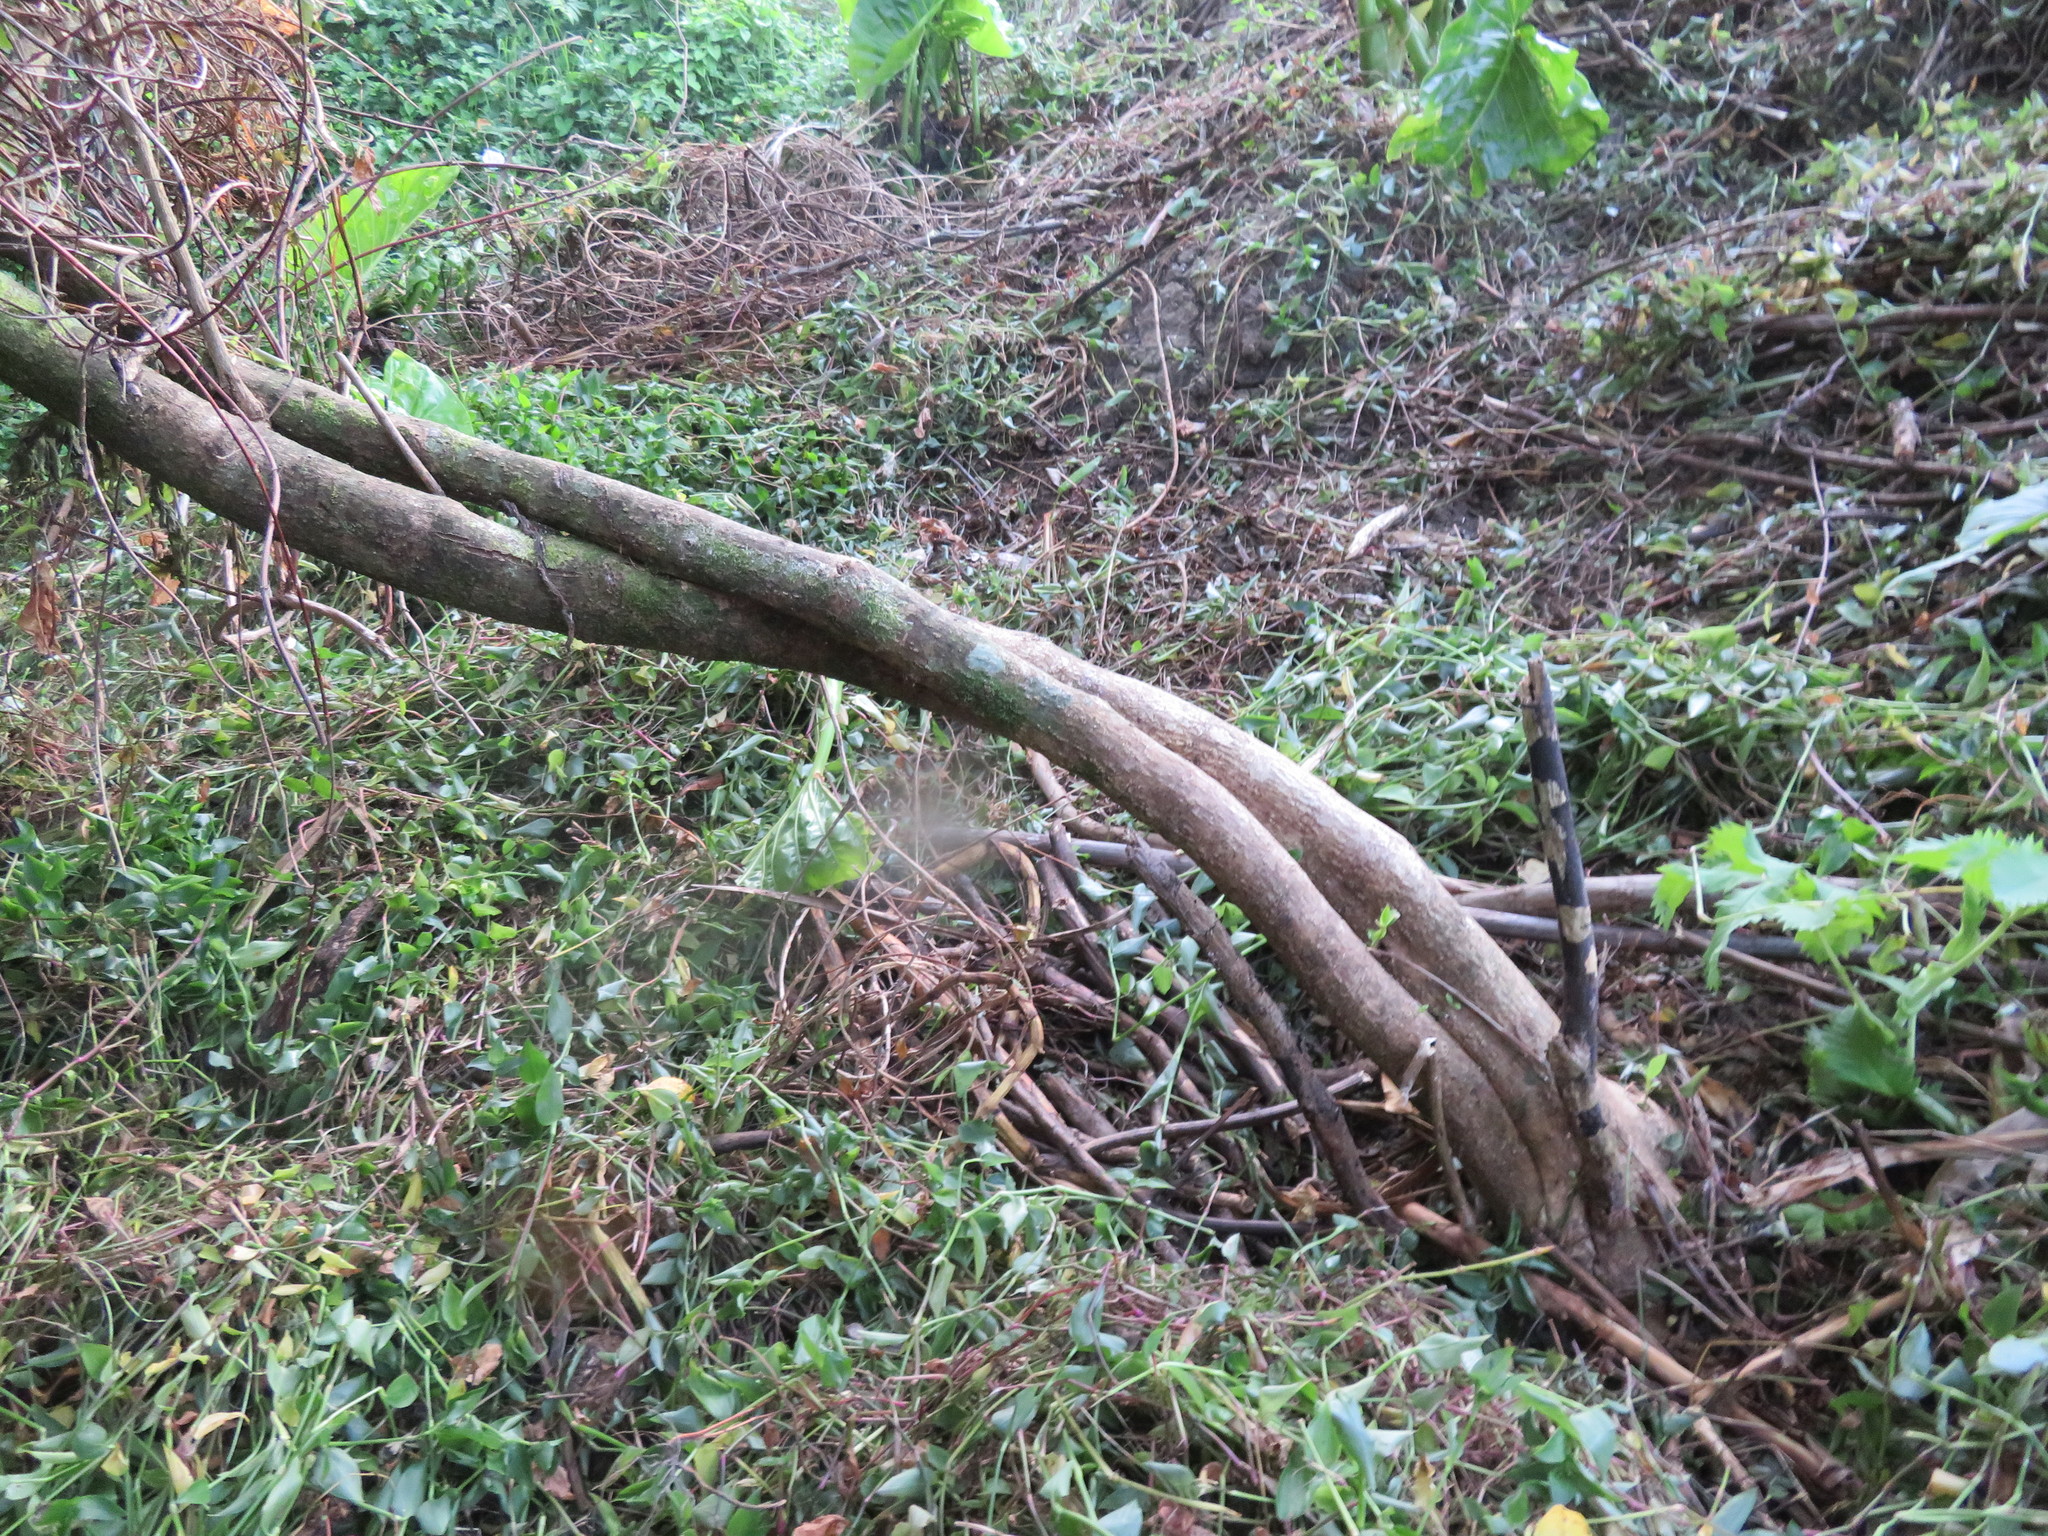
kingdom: Plantae
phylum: Tracheophyta
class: Liliopsida
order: Commelinales
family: Commelinaceae
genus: Tradescantia
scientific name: Tradescantia fluminensis
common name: Wandering-jew
